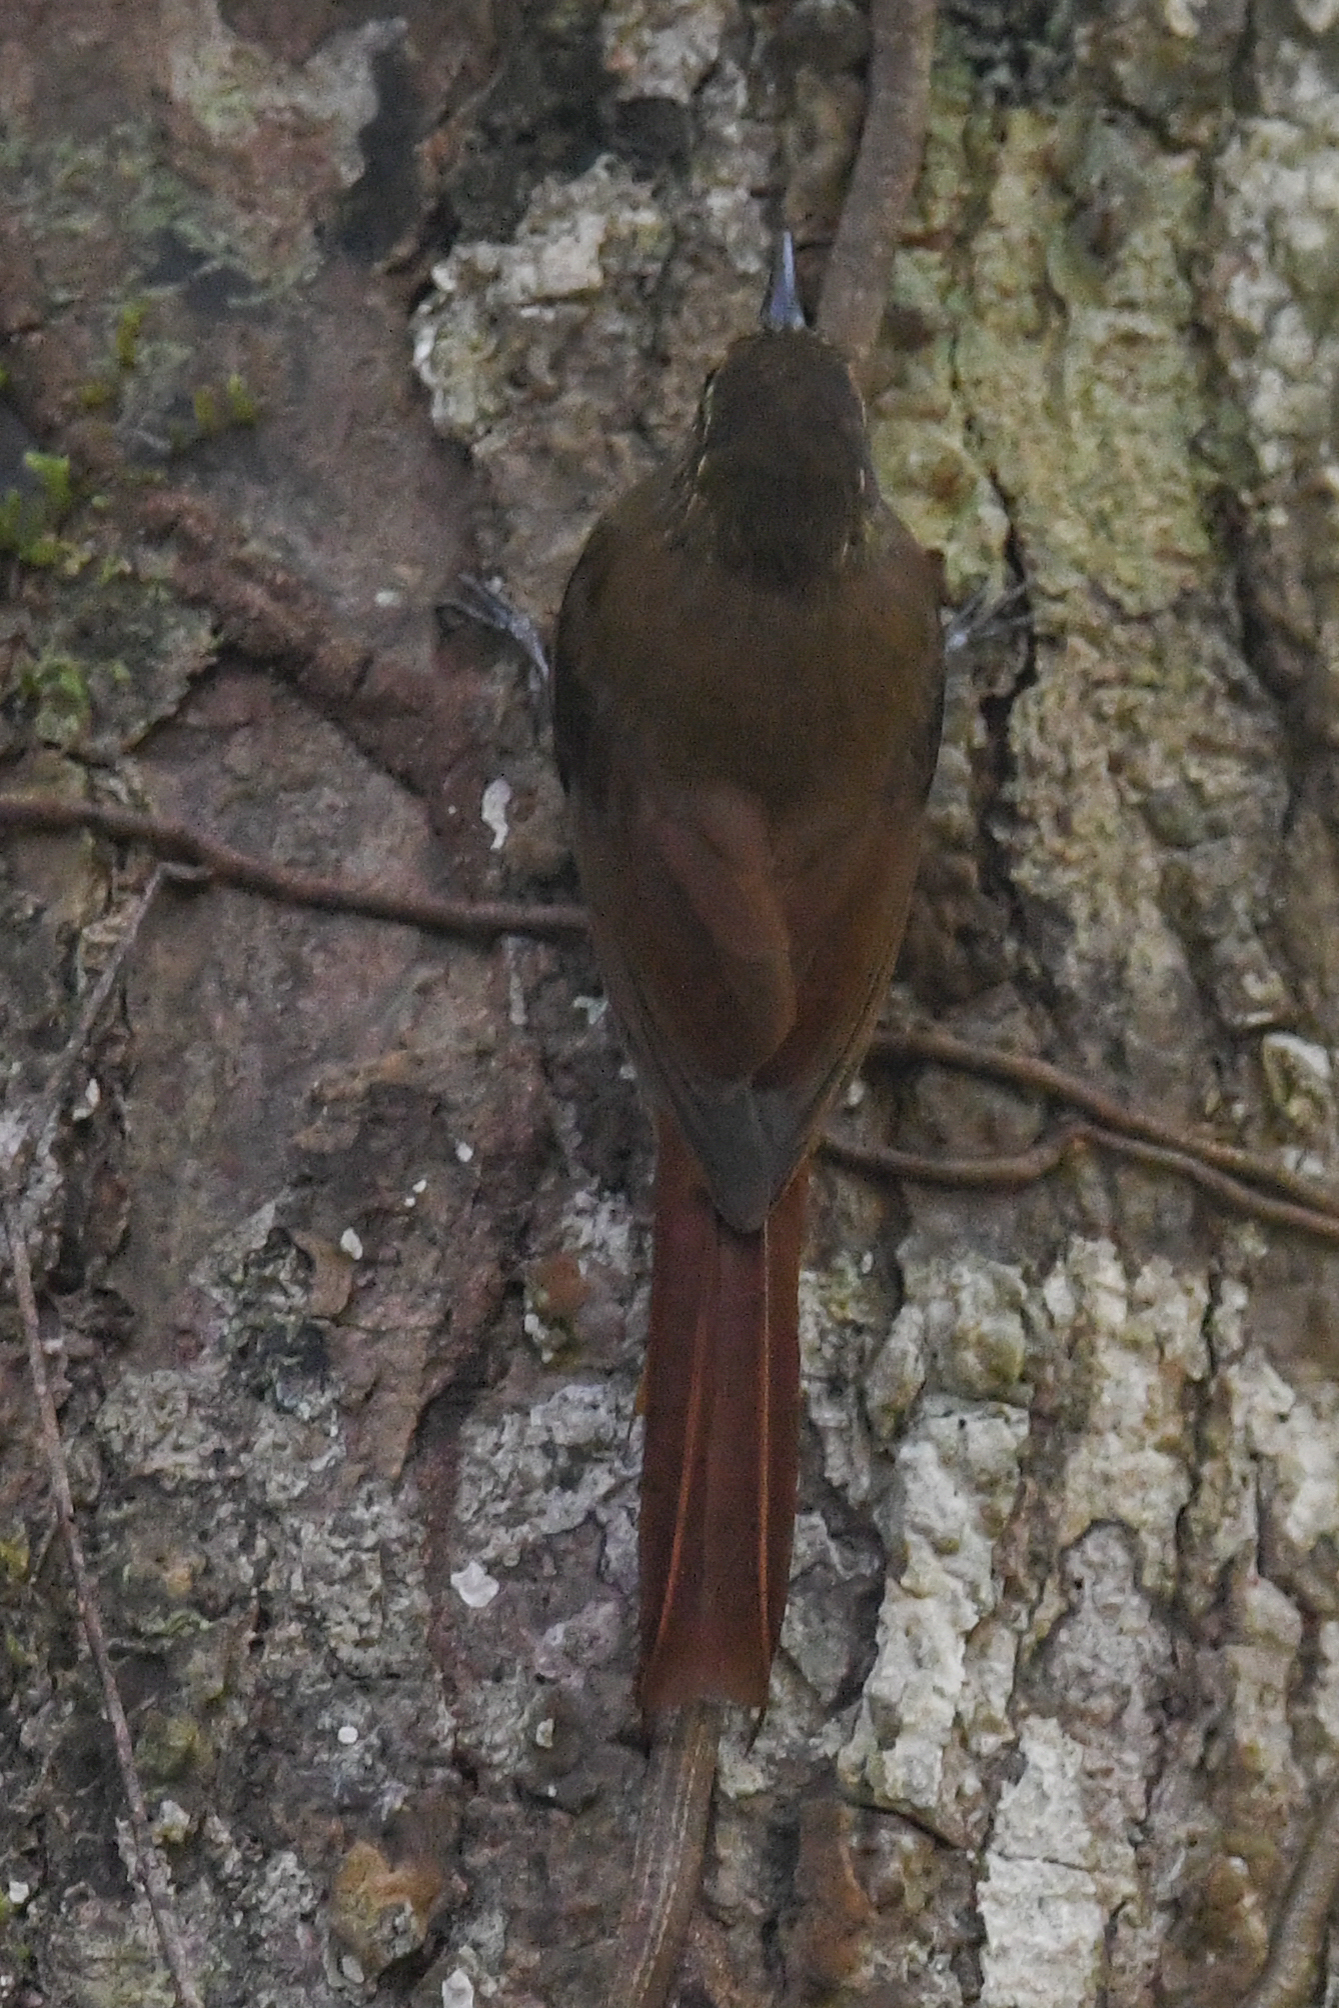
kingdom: Animalia
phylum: Chordata
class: Aves
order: Passeriformes
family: Furnariidae
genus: Glyphorynchus
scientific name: Glyphorynchus spirurus
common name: Wedge-billed woodcreeper
